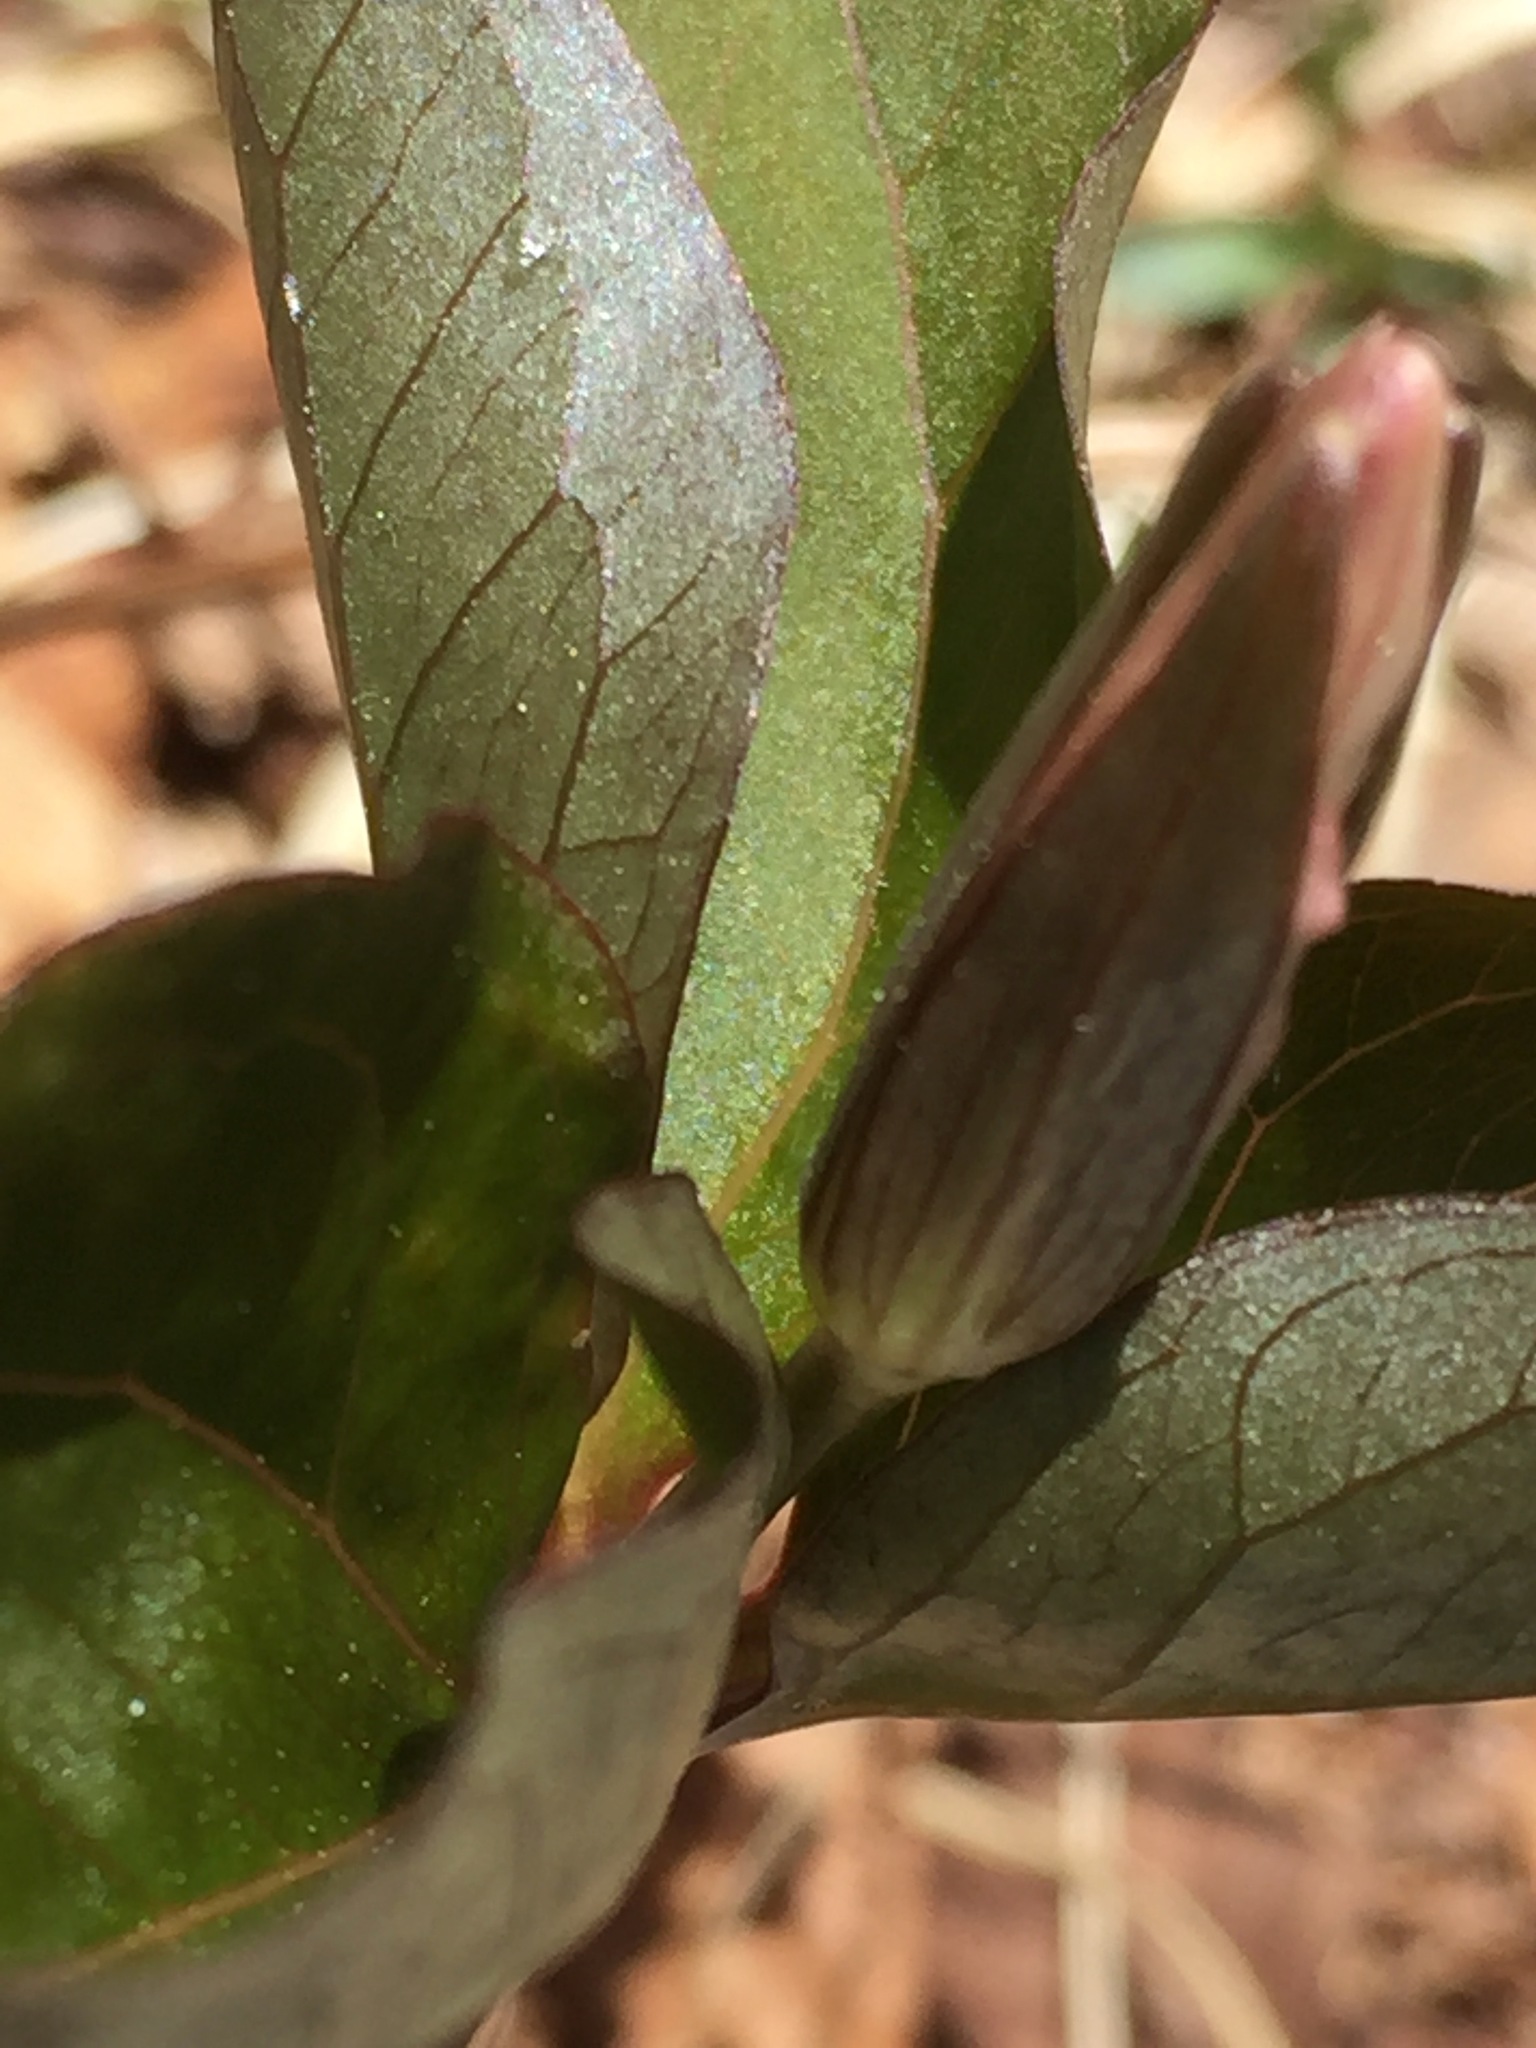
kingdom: Plantae
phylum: Tracheophyta
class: Liliopsida
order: Liliales
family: Melanthiaceae
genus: Trillium
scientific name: Trillium undulatum
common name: Paint trillium
